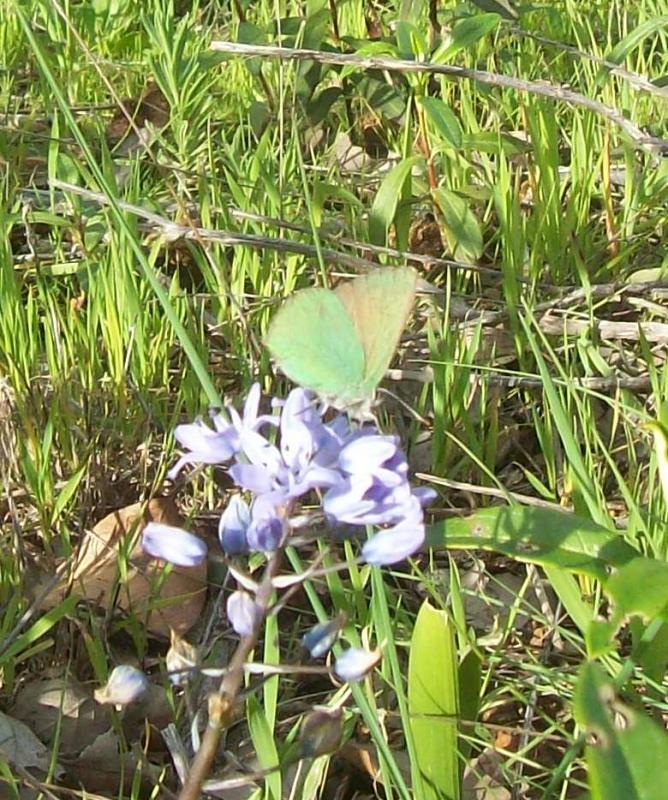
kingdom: Plantae
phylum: Tracheophyta
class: Liliopsida
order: Asparagales
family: Asparagaceae
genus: Scilla
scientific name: Scilla monophyllos
